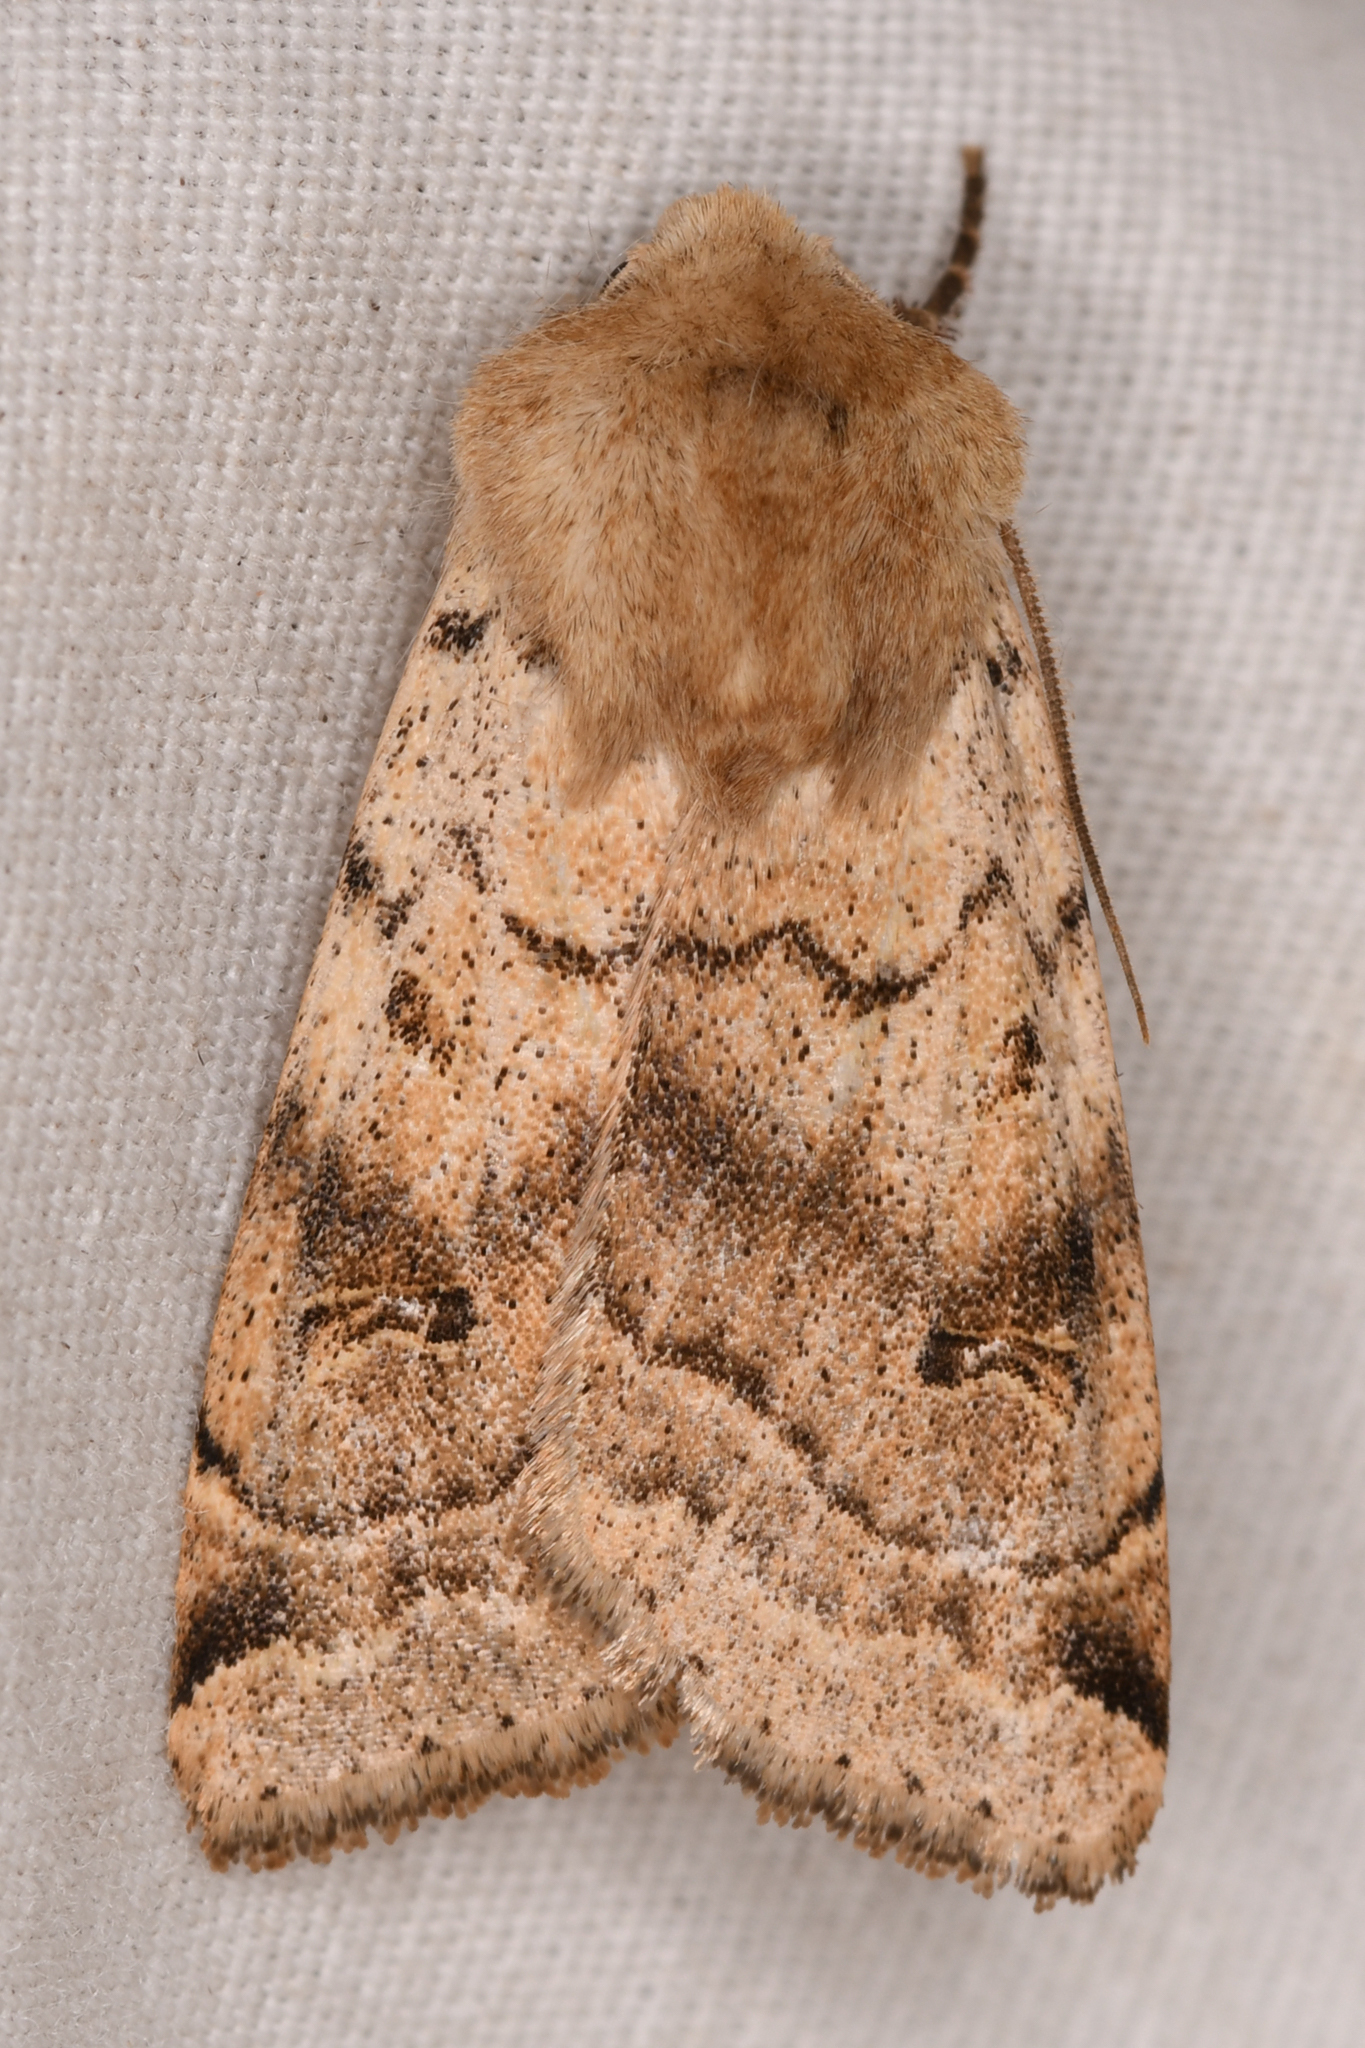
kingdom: Animalia
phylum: Arthropoda
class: Insecta
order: Lepidoptera
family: Noctuidae
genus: Dichagyris
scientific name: Dichagyris variabilis
